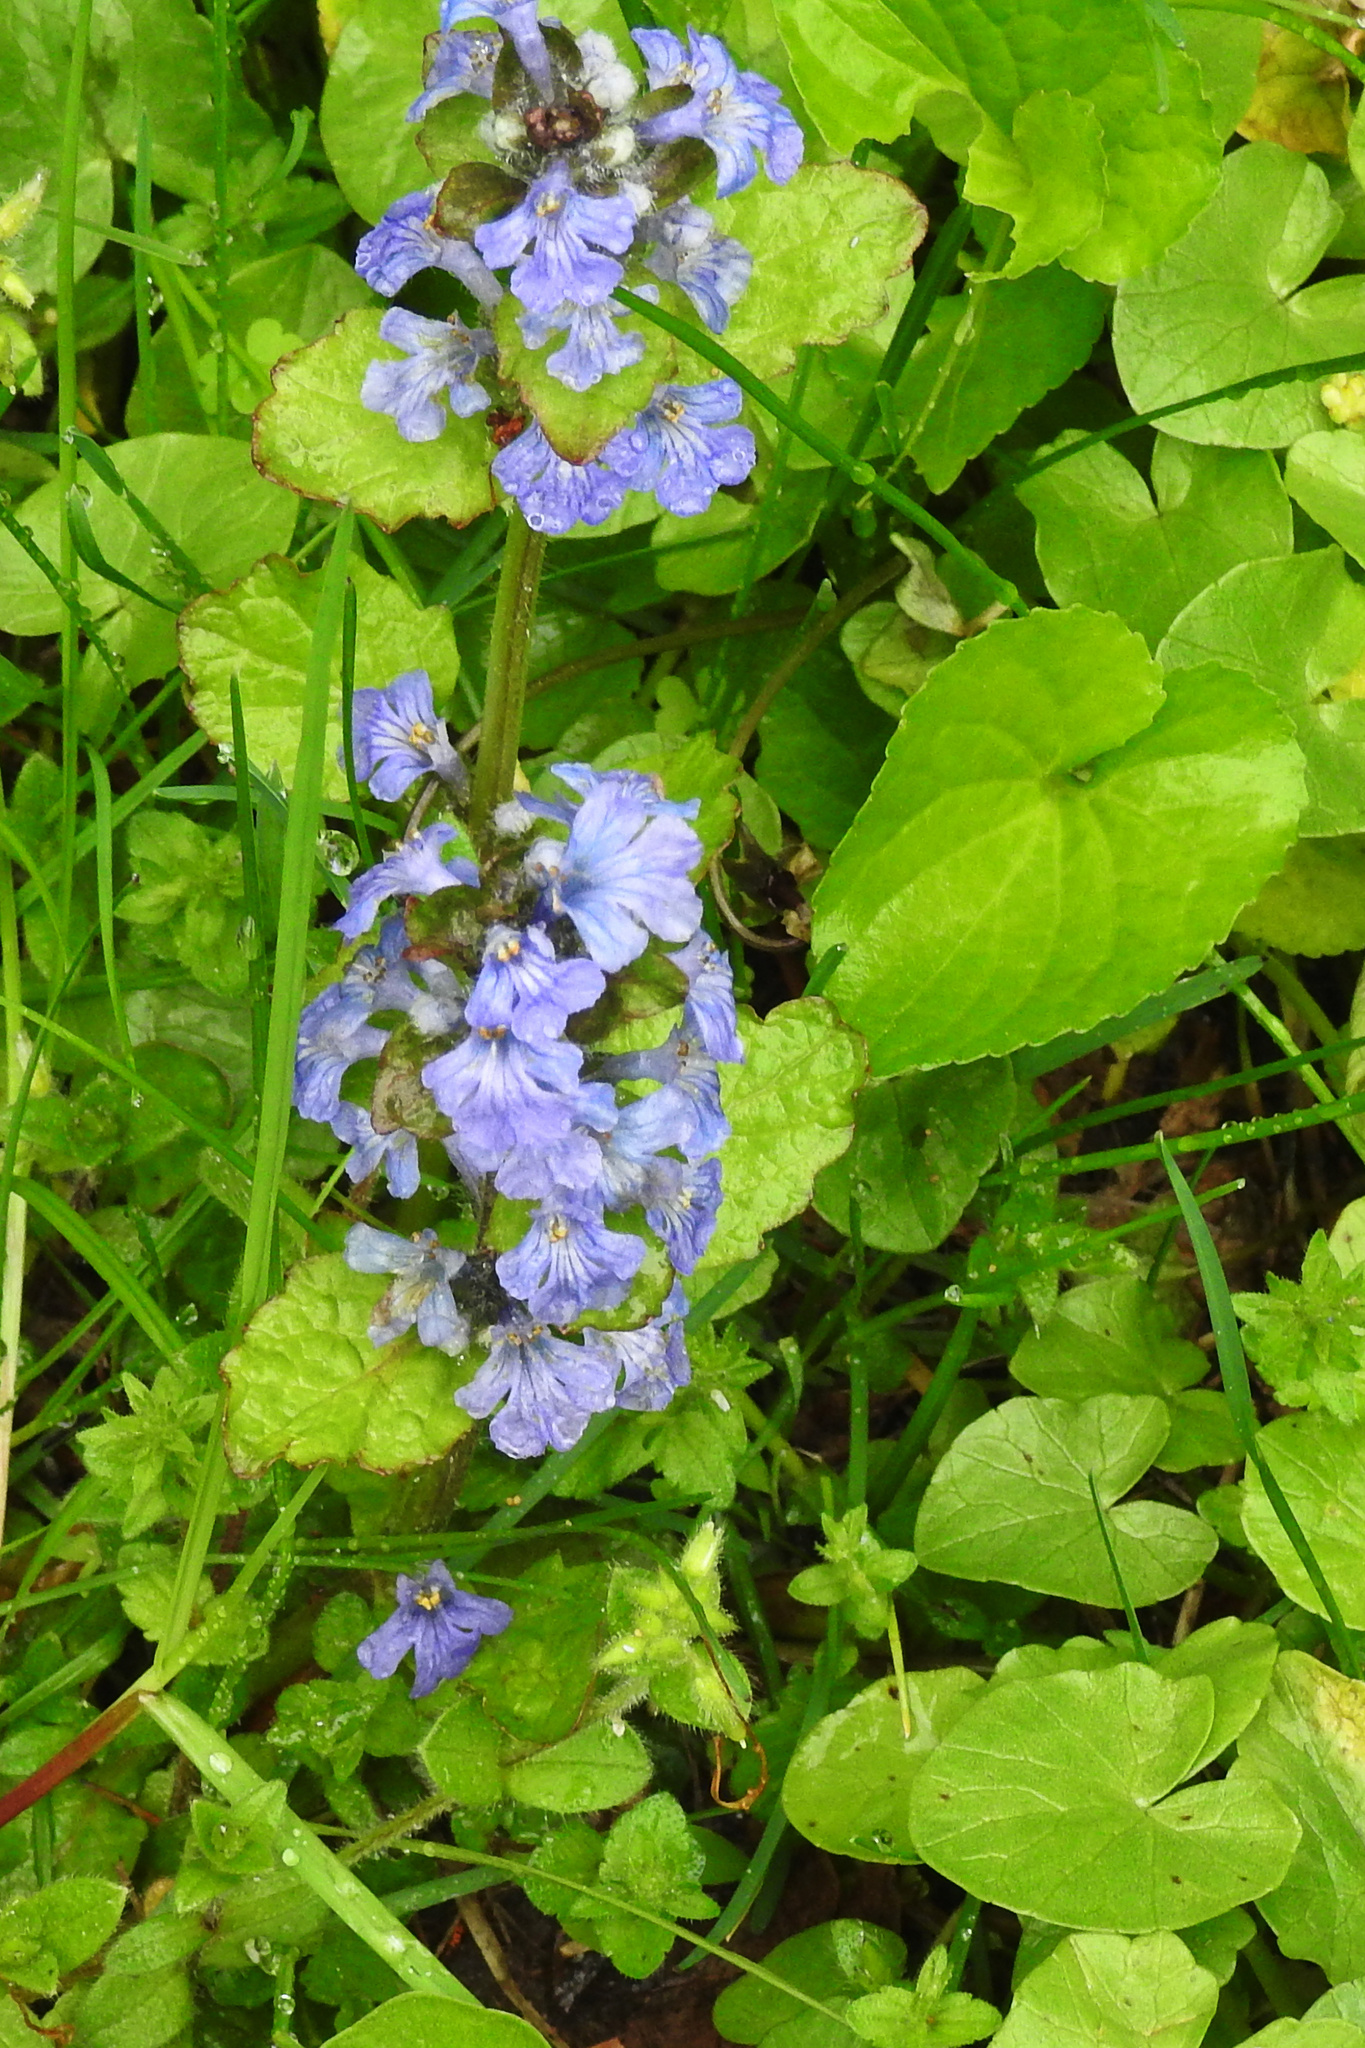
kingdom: Plantae
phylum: Tracheophyta
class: Magnoliopsida
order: Lamiales
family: Lamiaceae
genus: Ajuga
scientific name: Ajuga reptans
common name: Bugle
